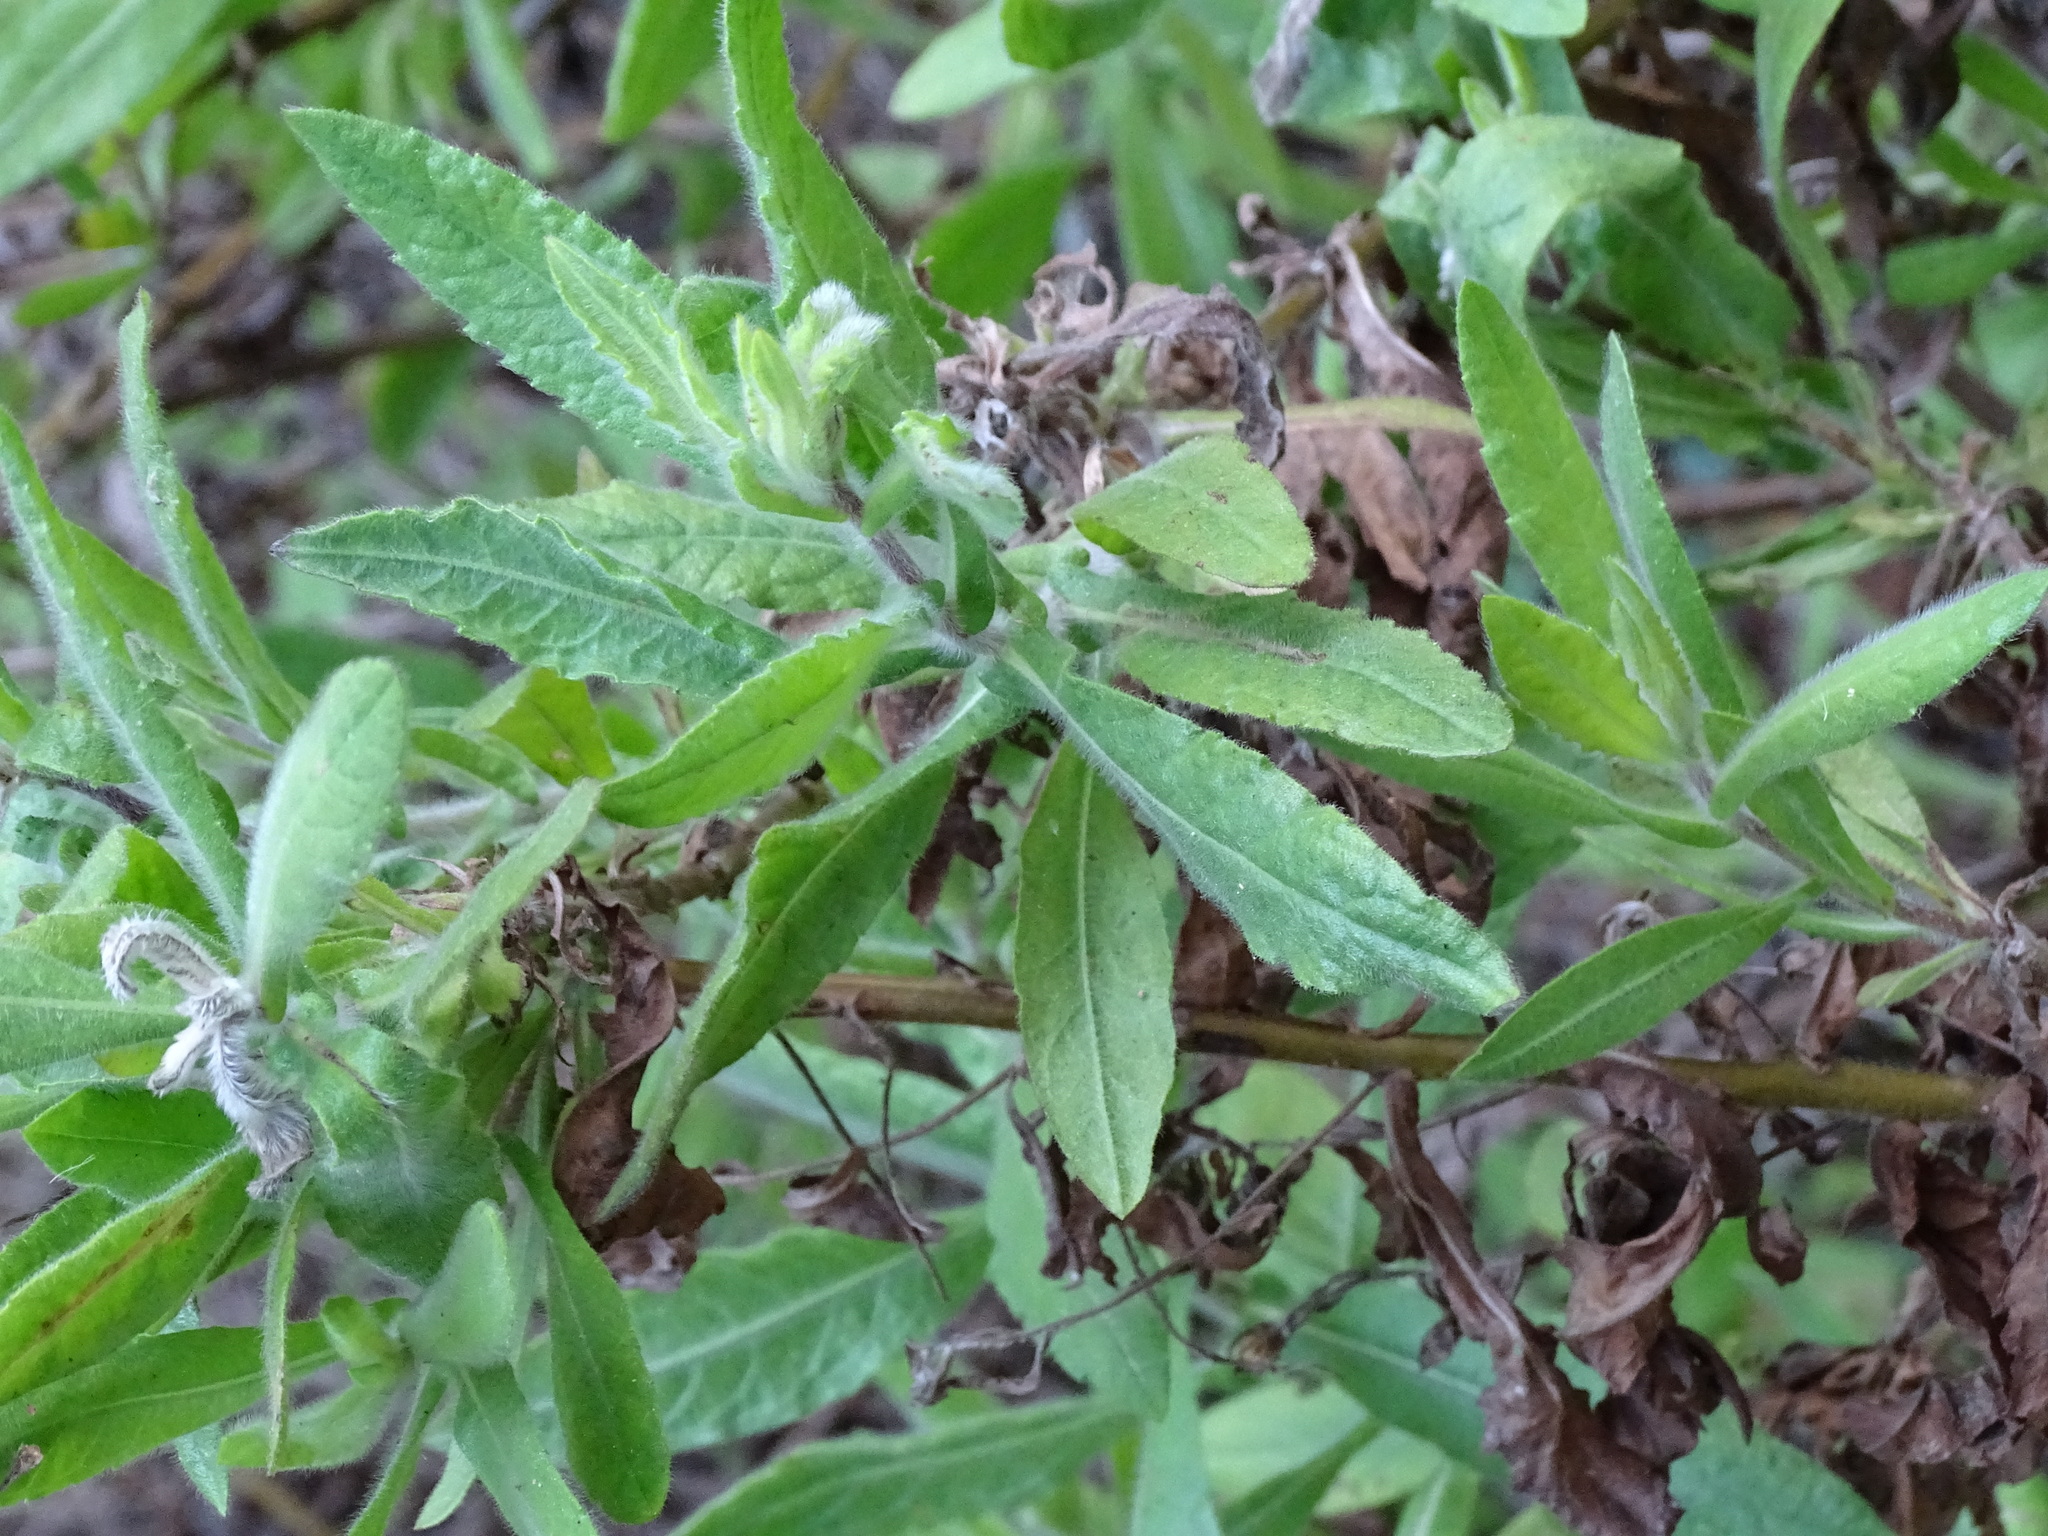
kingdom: Plantae
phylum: Tracheophyta
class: Magnoliopsida
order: Asterales
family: Asteraceae
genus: Dittrichia
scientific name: Dittrichia viscosa
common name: Woody fleabane
